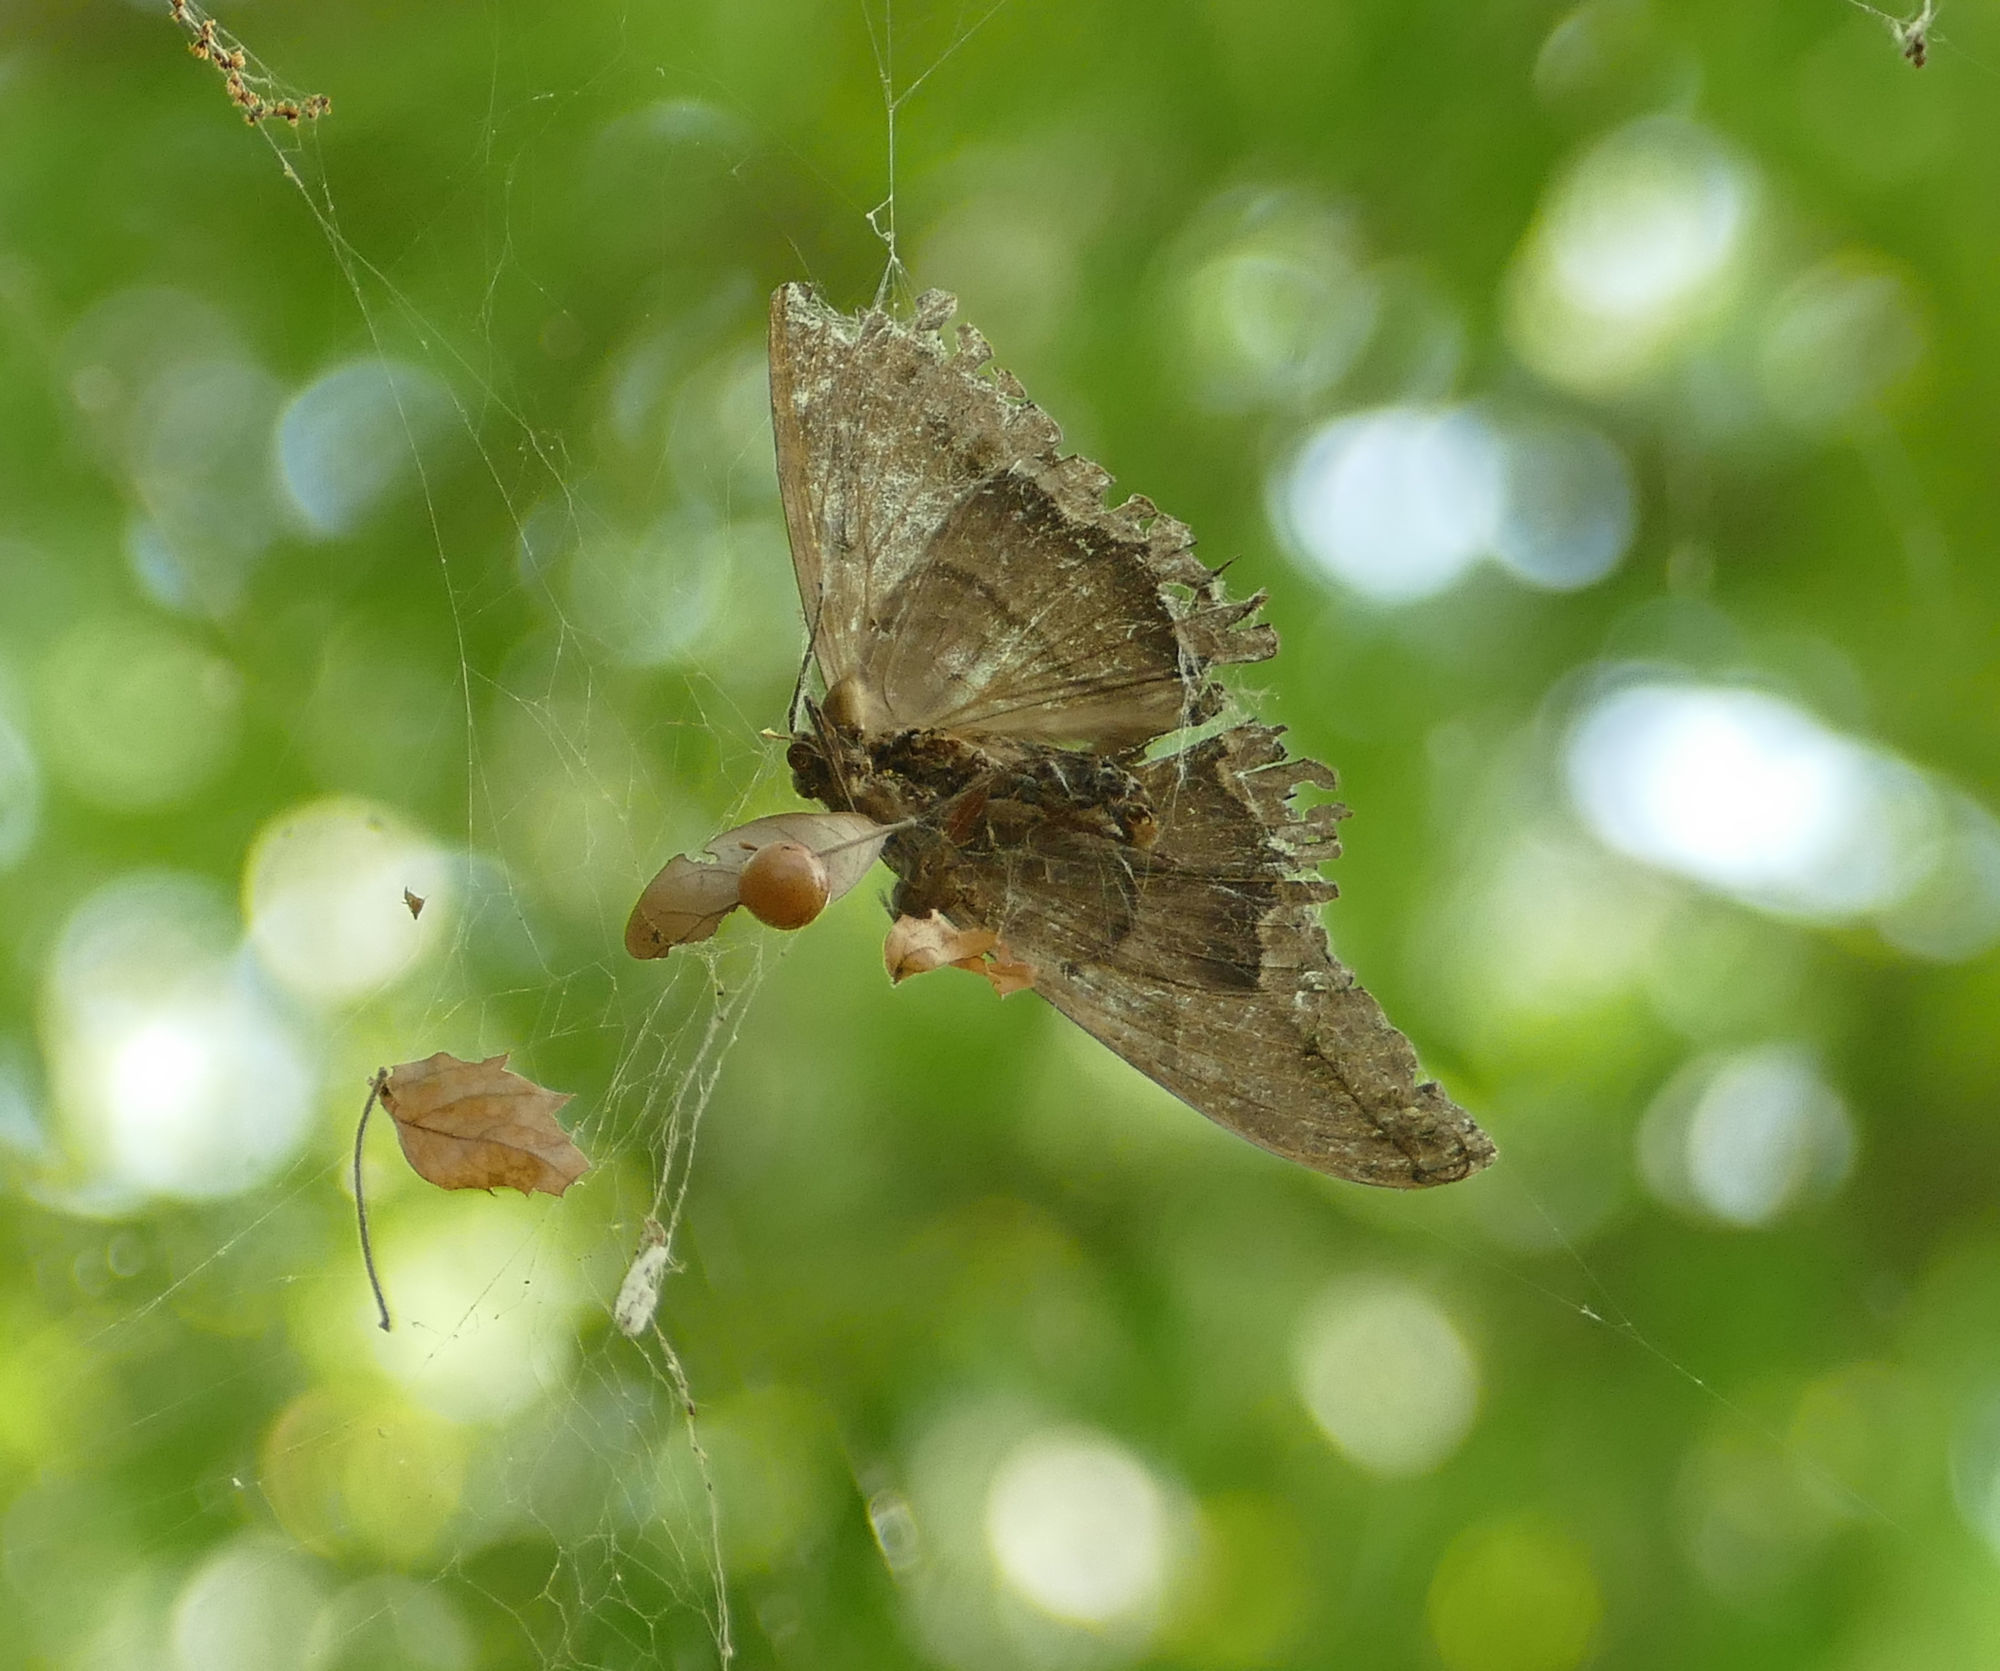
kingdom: Animalia
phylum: Arthropoda
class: Insecta
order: Lepidoptera
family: Erebidae
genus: Ascalapha
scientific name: Ascalapha odorata
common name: Black witch
